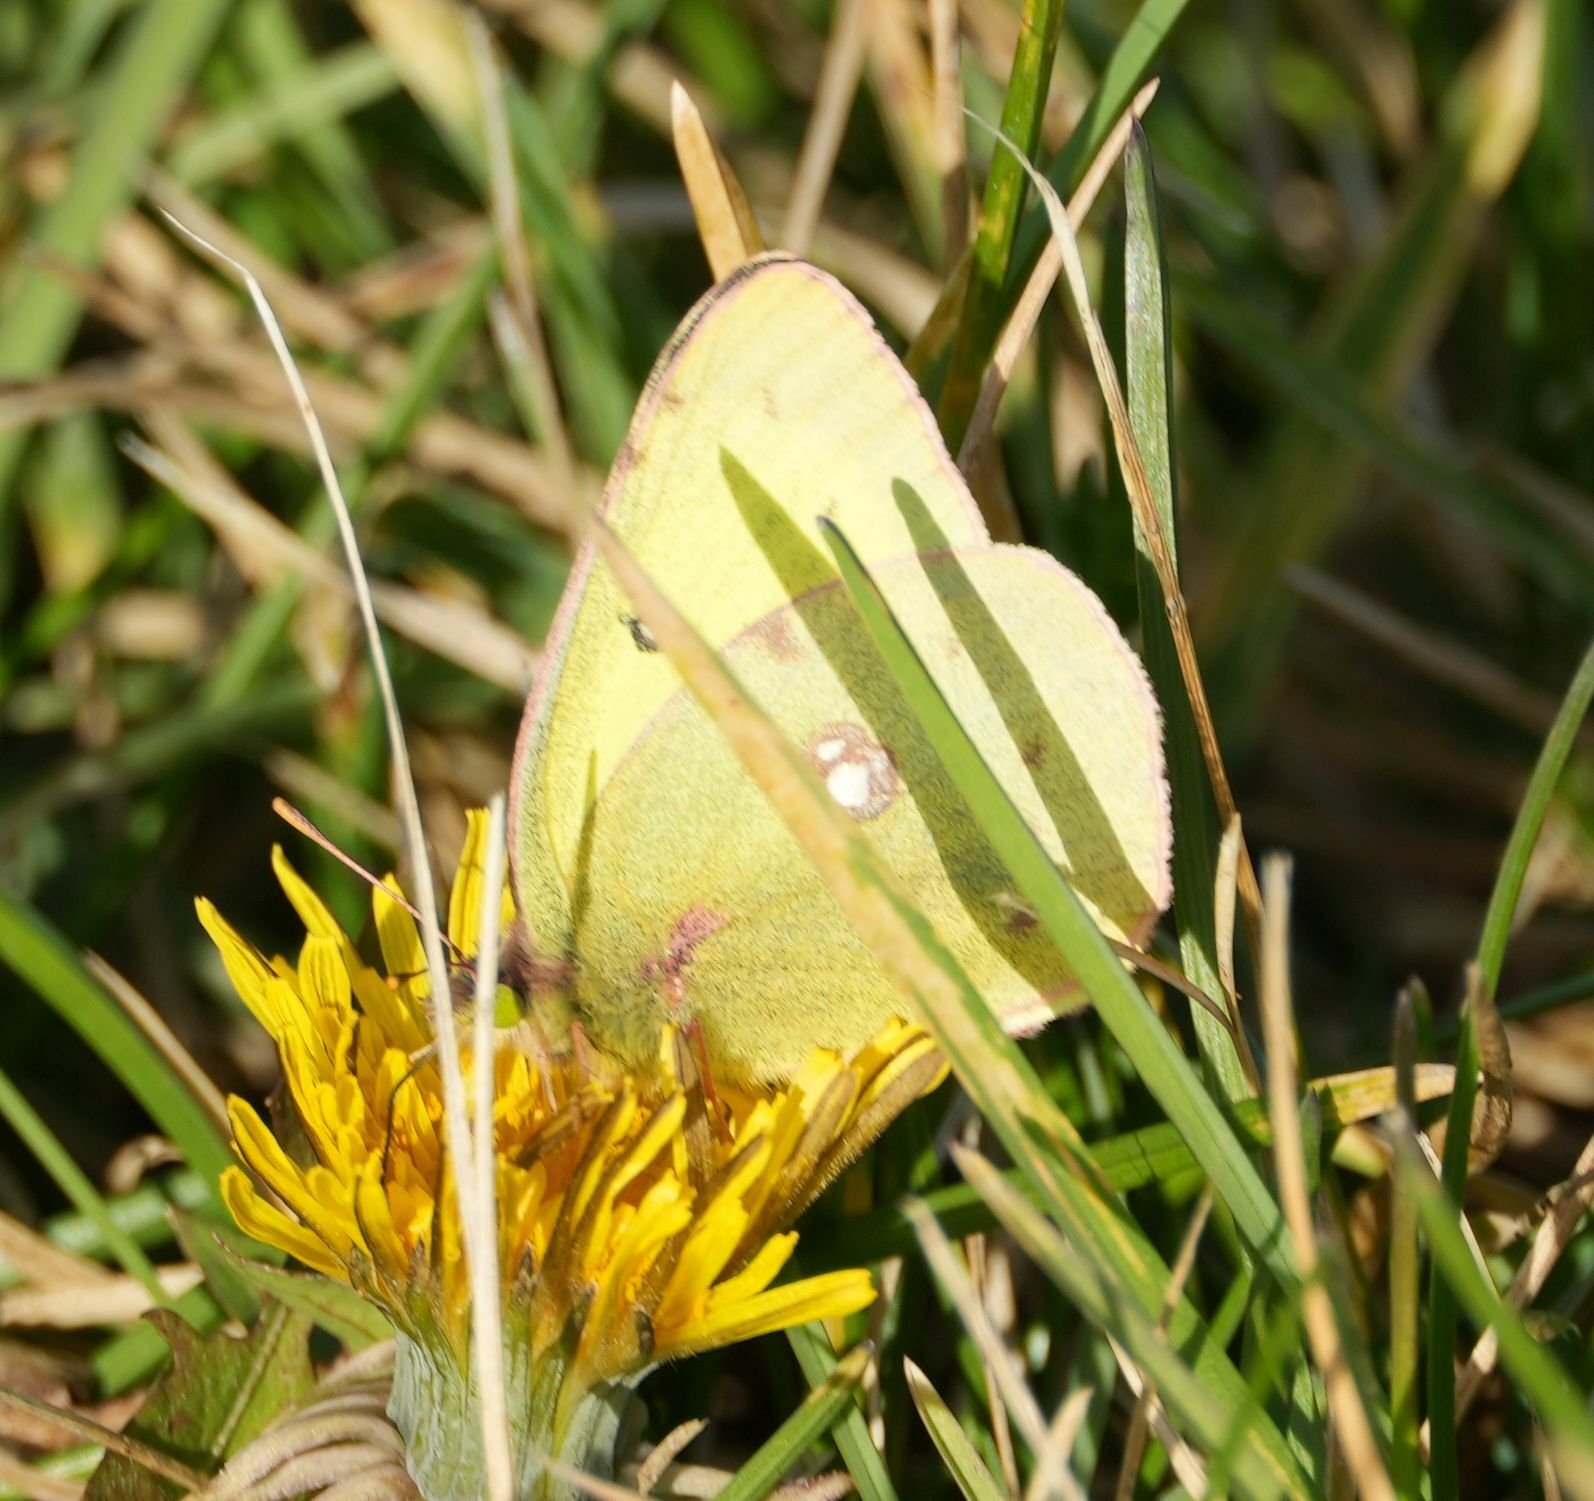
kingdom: Animalia
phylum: Arthropoda
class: Insecta
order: Lepidoptera
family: Pieridae
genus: Colias
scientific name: Colias philodice
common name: Clouded sulphur
